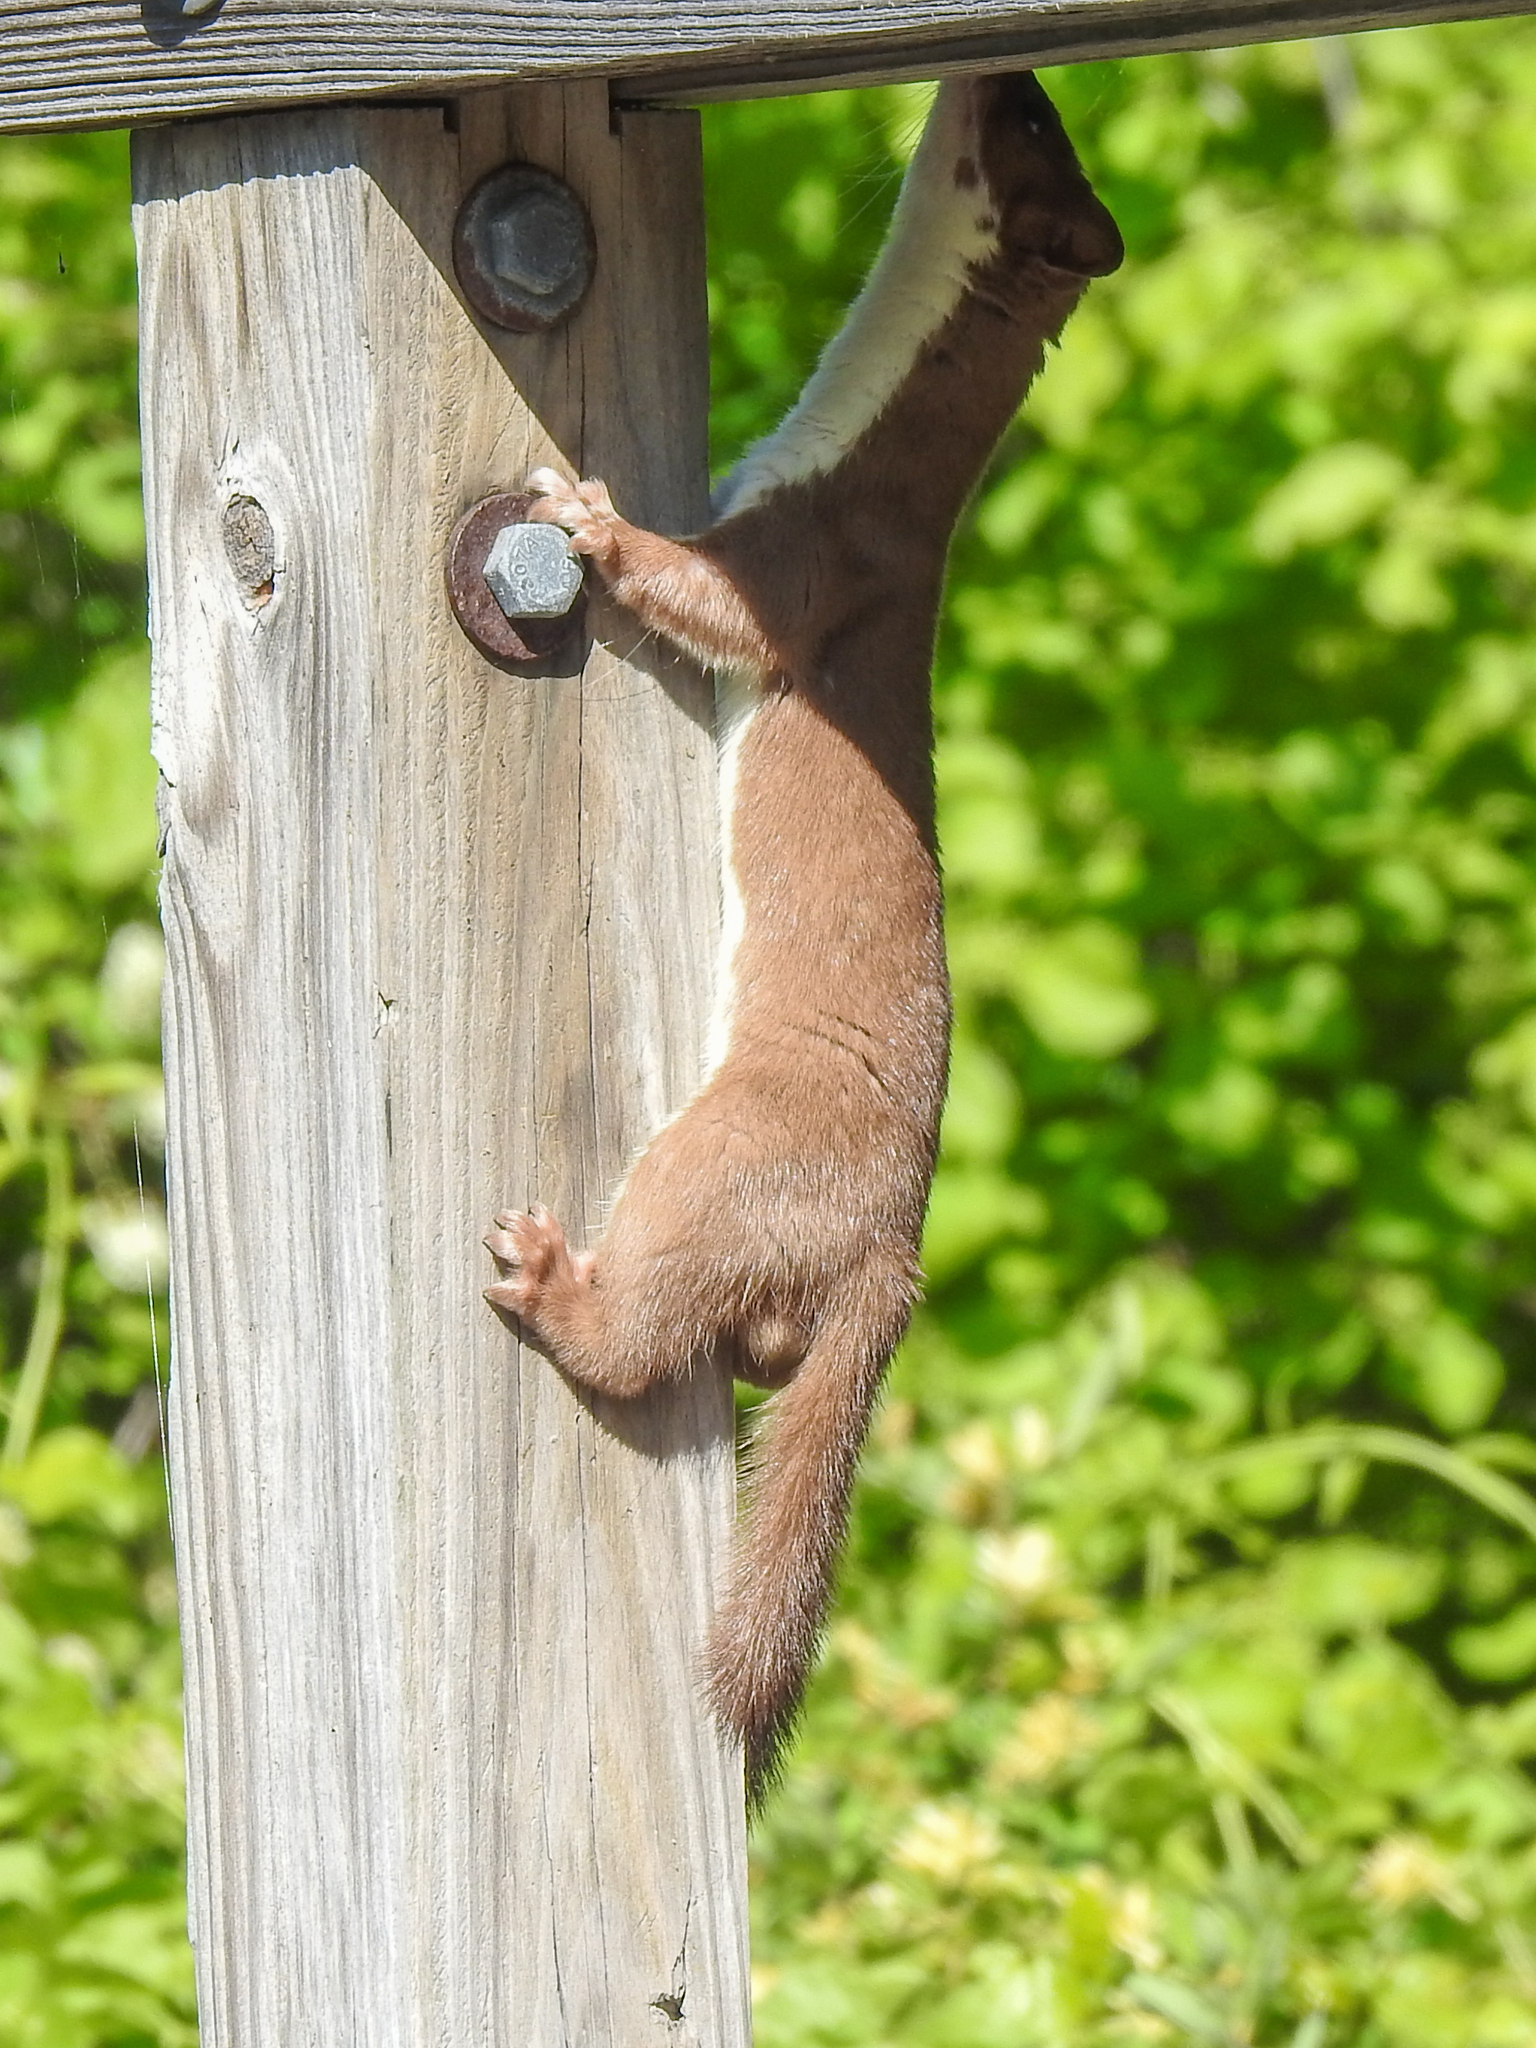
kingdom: Animalia
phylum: Chordata
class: Mammalia
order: Carnivora
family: Mustelidae
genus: Mustela
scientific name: Mustela erminea
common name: Stoat
